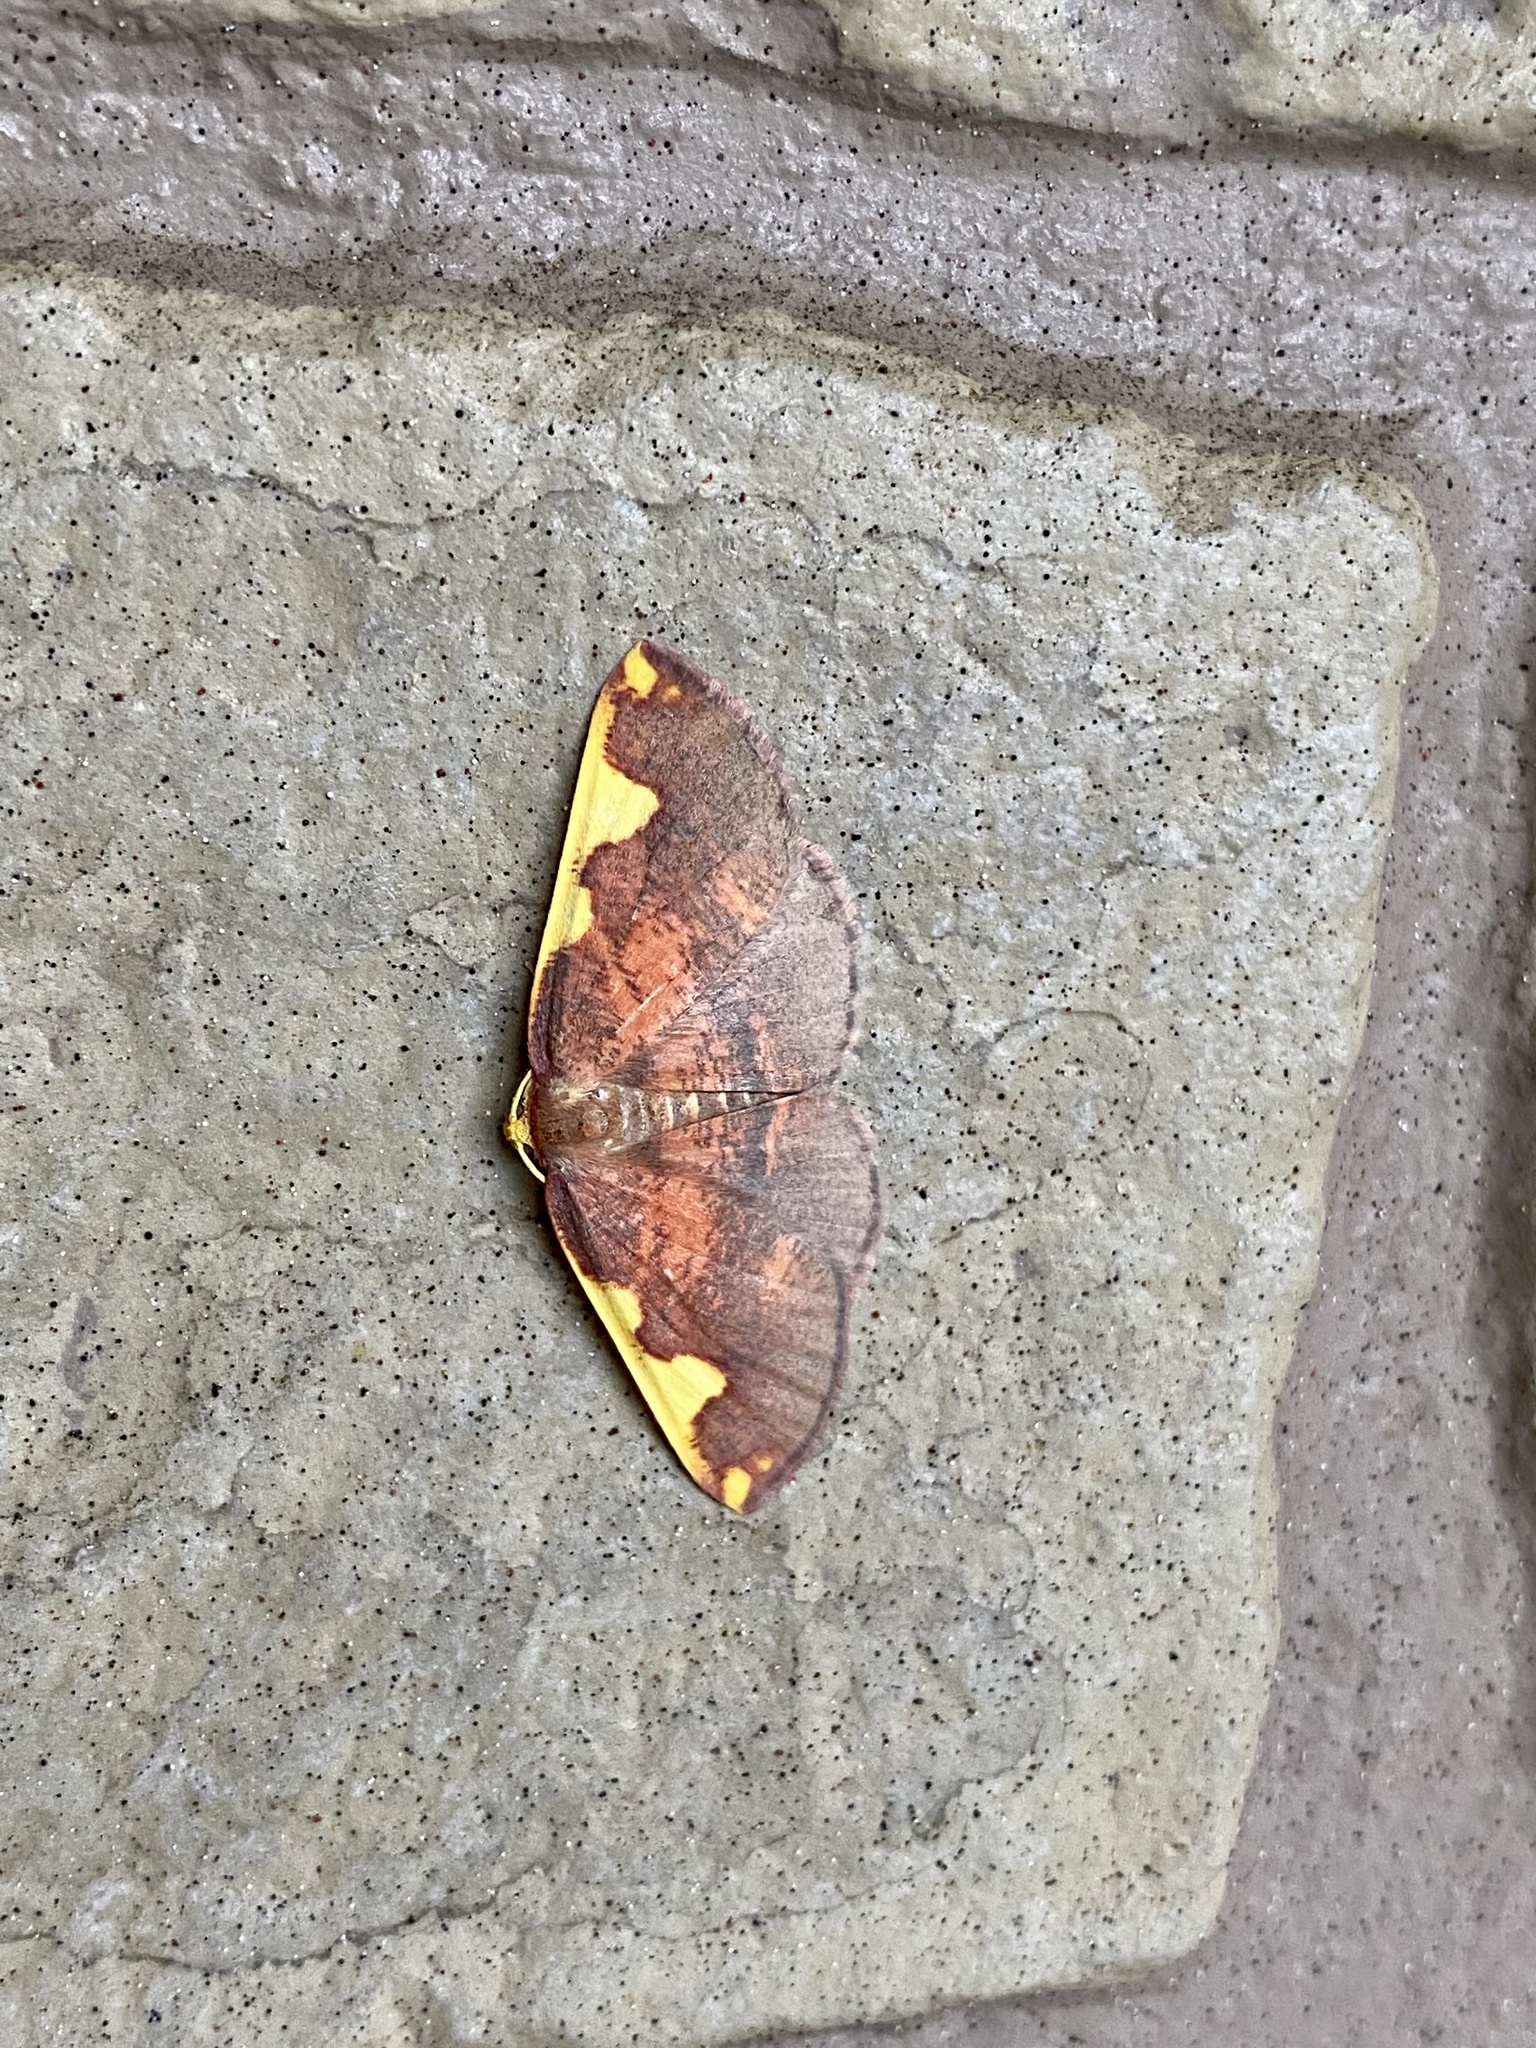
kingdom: Animalia
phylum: Arthropoda
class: Insecta
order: Lepidoptera
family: Geometridae
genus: Nothomiza
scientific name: Nothomiza formosa
